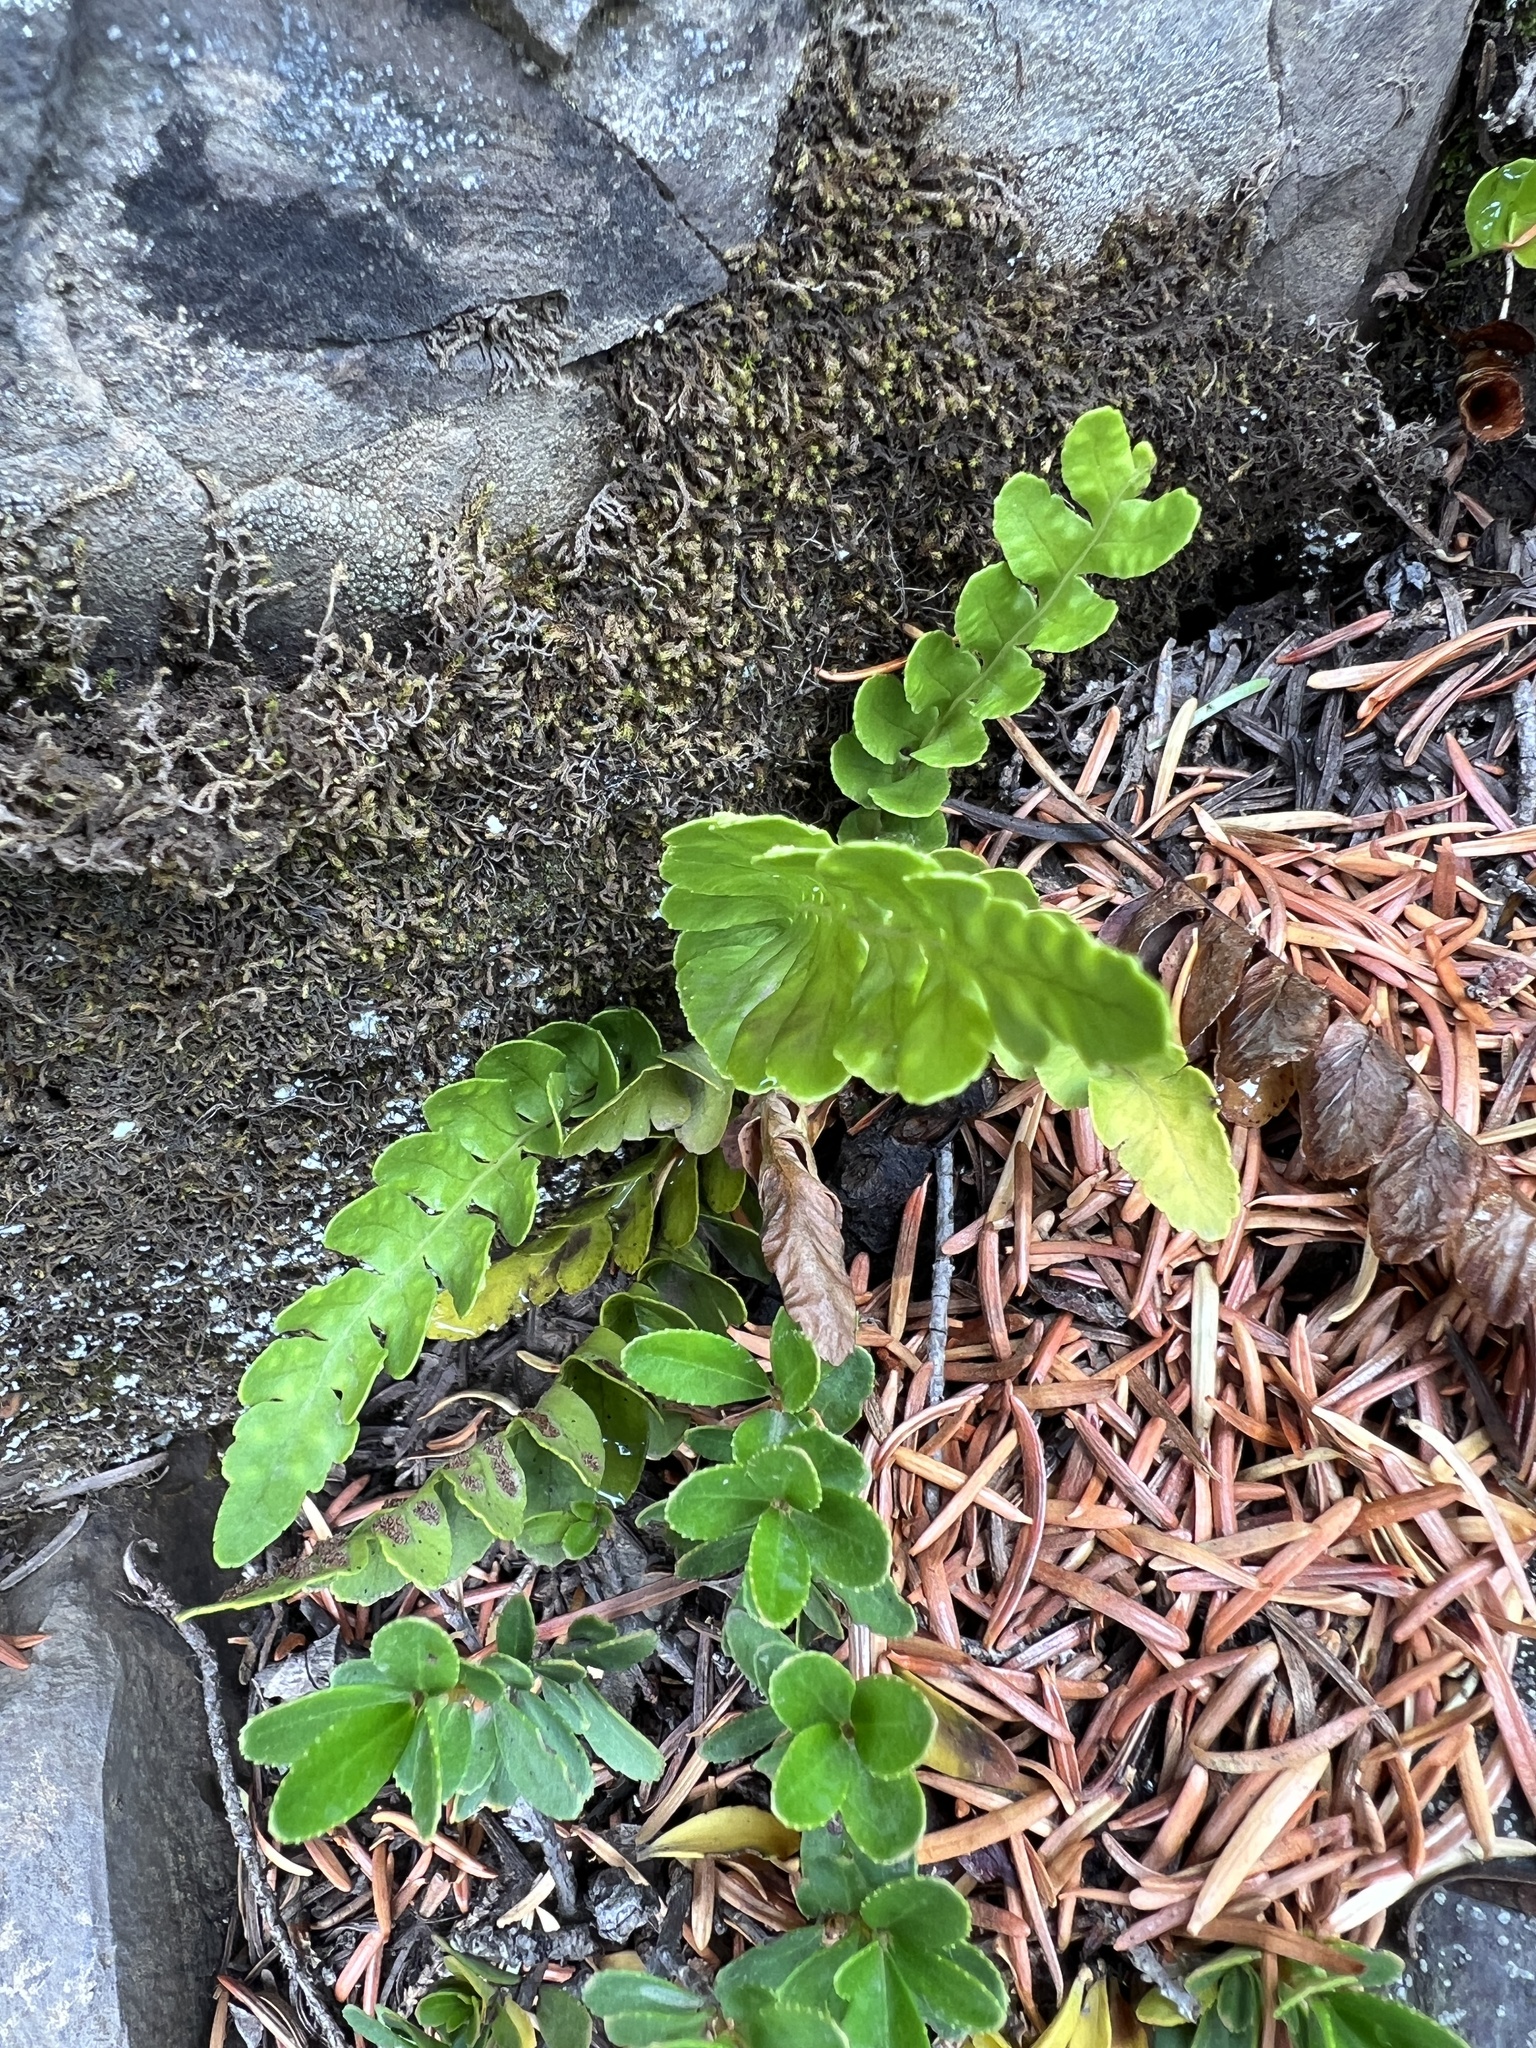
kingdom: Plantae
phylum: Tracheophyta
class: Polypodiopsida
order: Polypodiales
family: Polypodiaceae
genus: Polypodium
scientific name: Polypodium amorphum
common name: Pacific polypody
